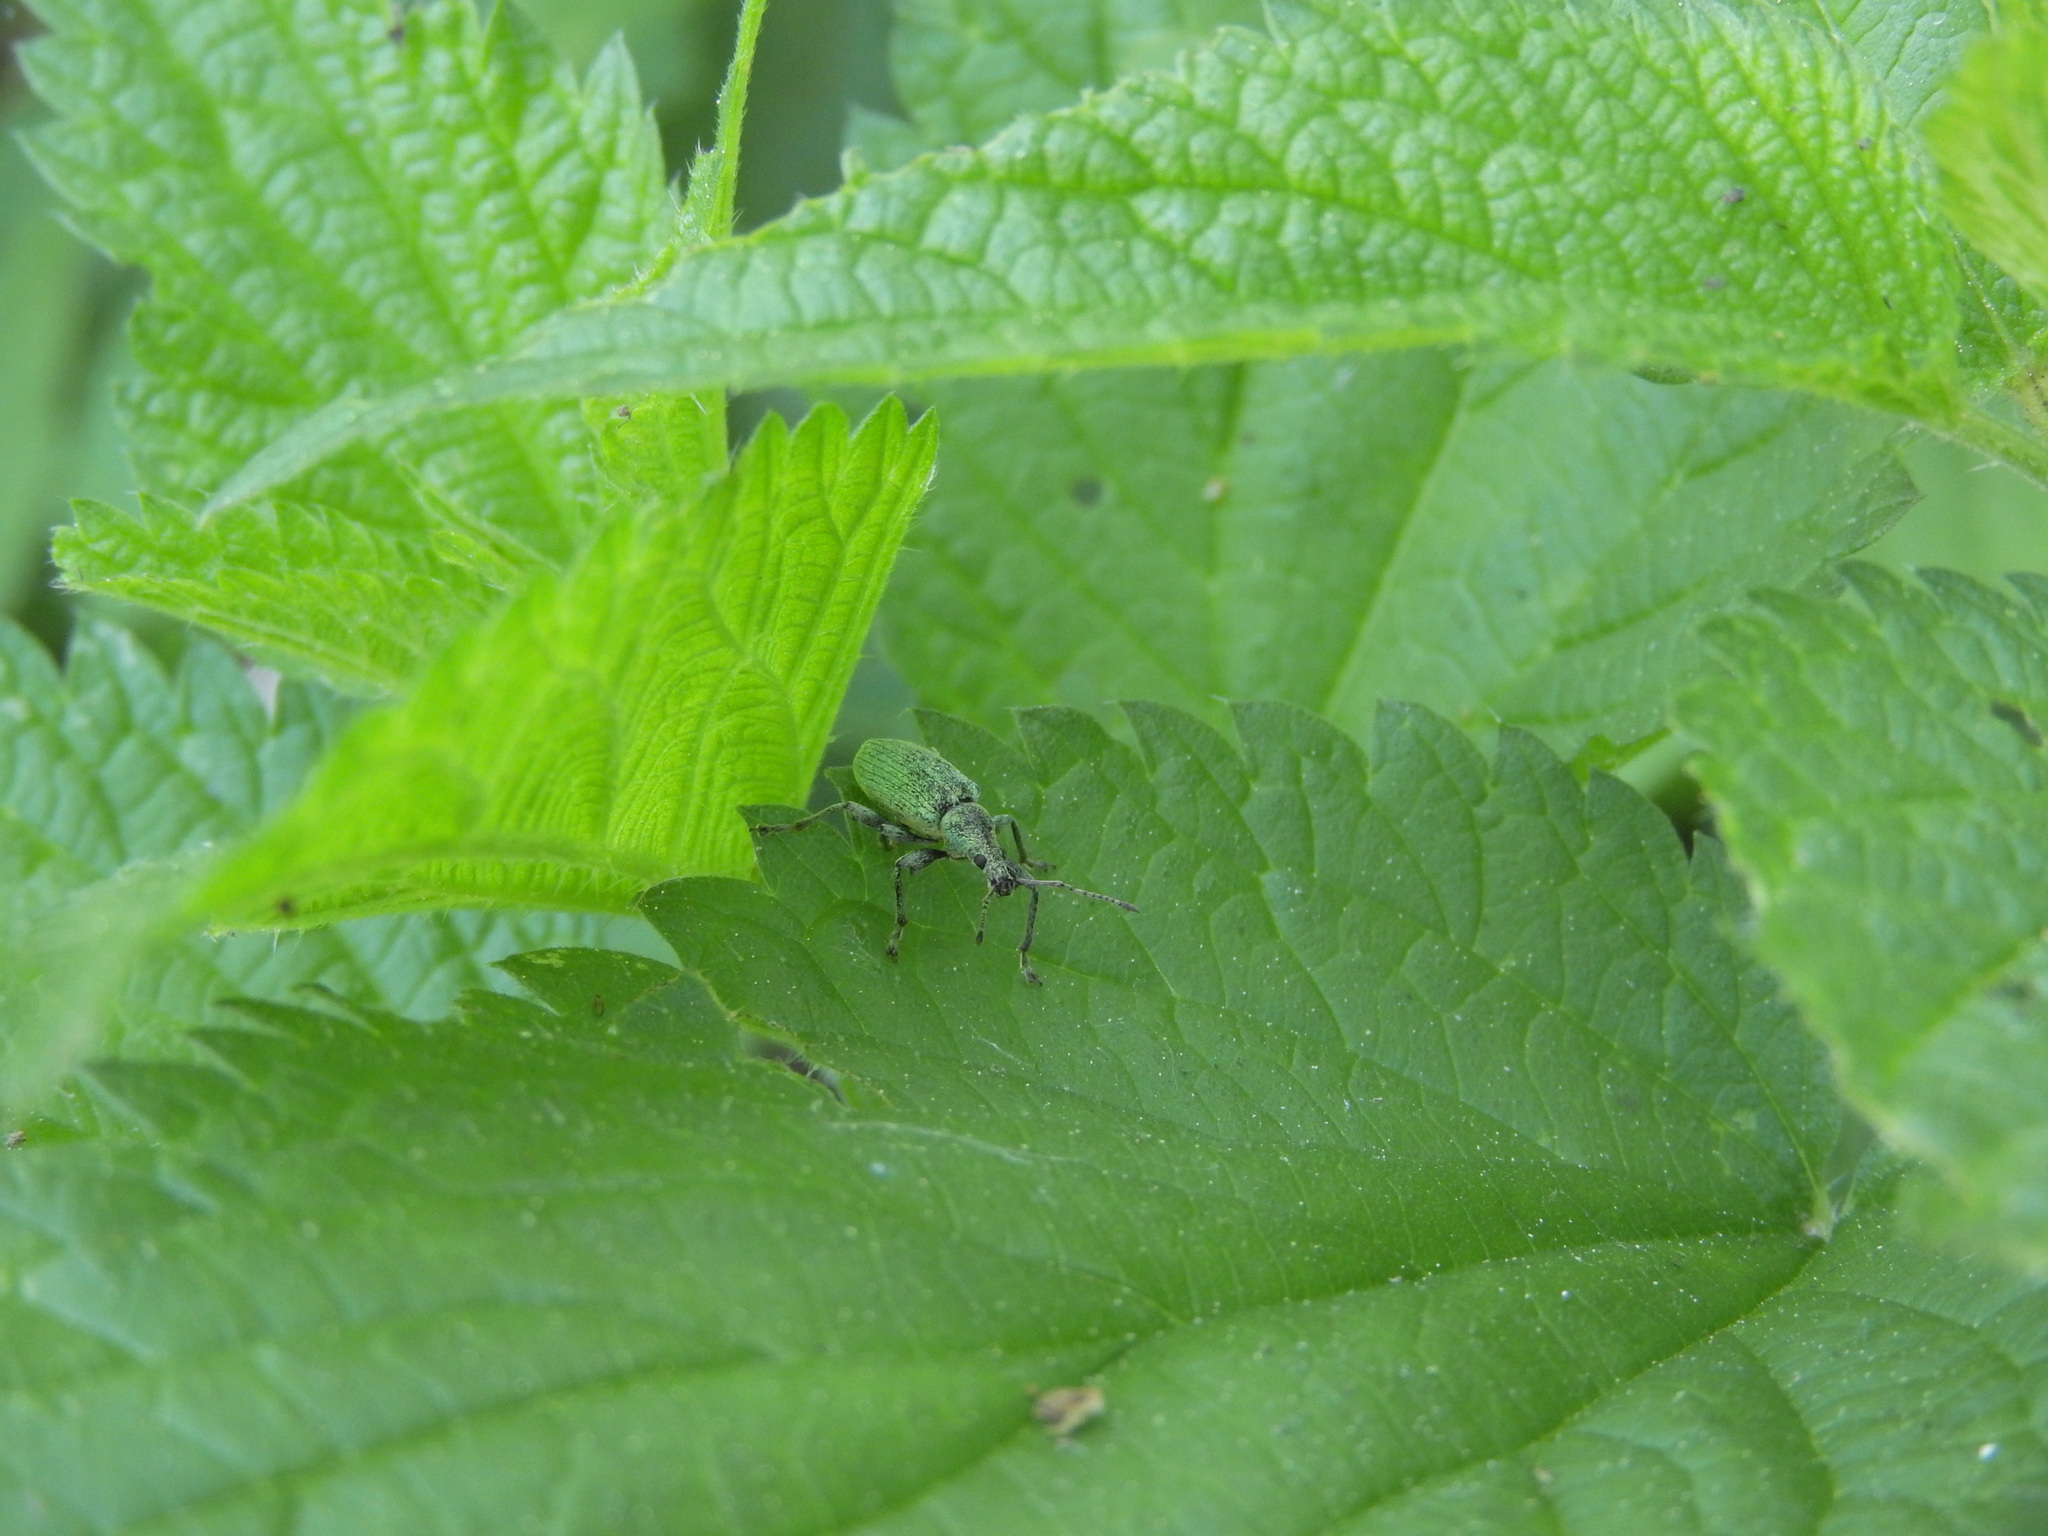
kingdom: Animalia
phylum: Arthropoda
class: Insecta
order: Coleoptera
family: Curculionidae
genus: Phyllobius
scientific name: Phyllobius pomaceus
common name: Green nettle weevil
